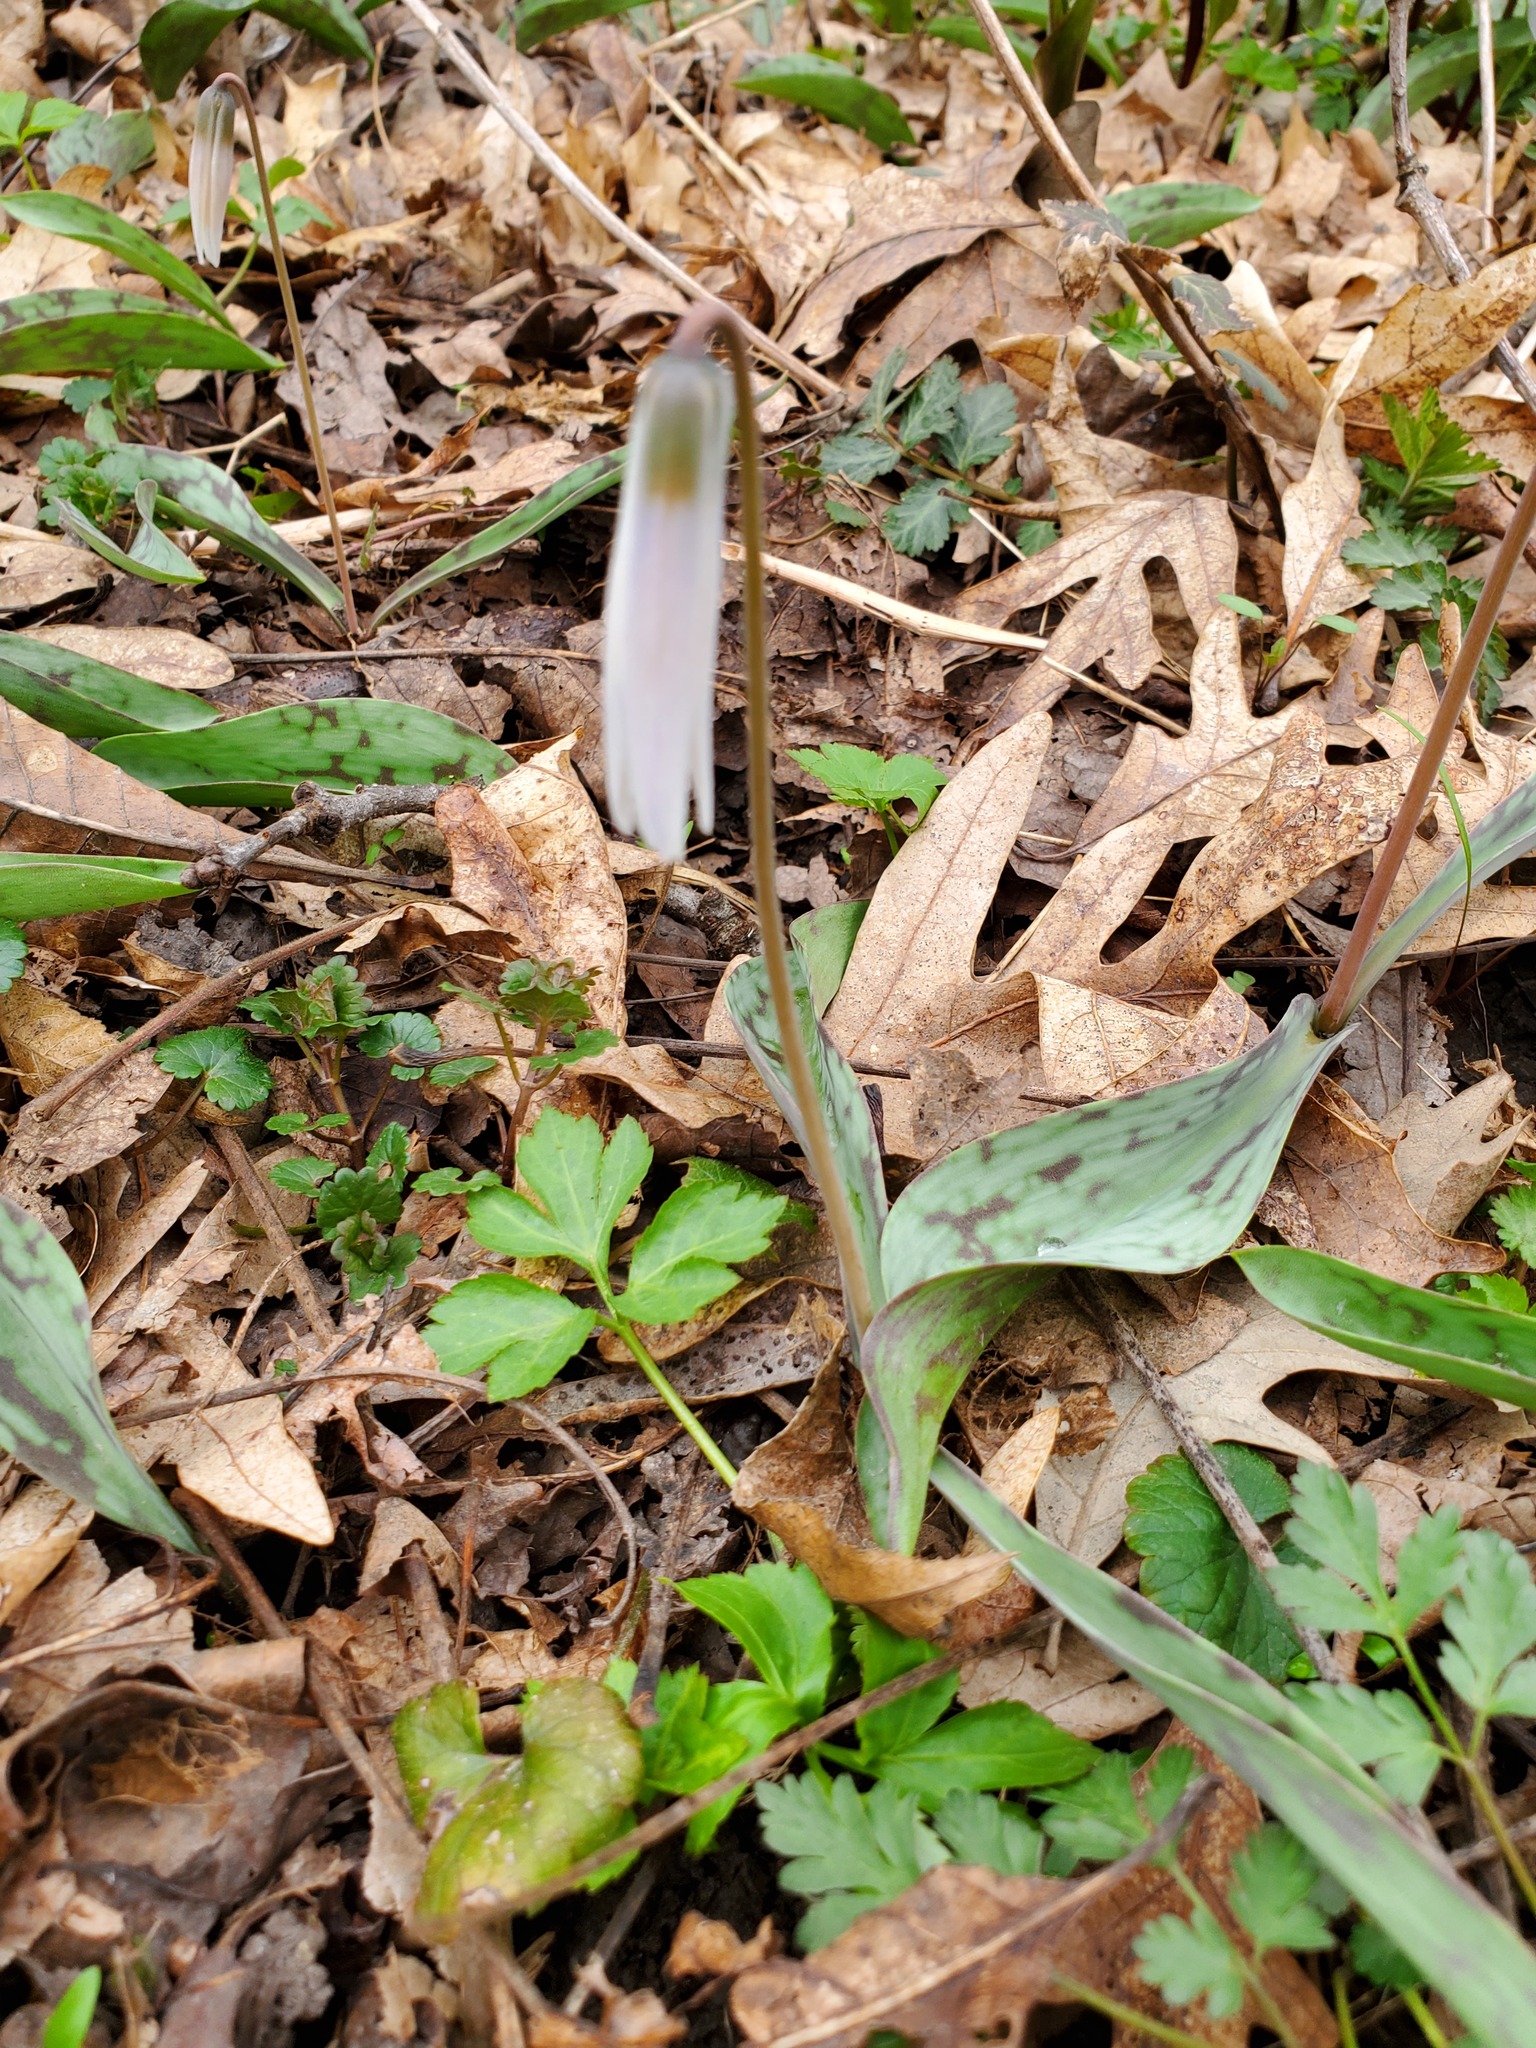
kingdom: Plantae
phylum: Tracheophyta
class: Liliopsida
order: Liliales
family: Liliaceae
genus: Erythronium
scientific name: Erythronium albidum
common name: White trout-lily
